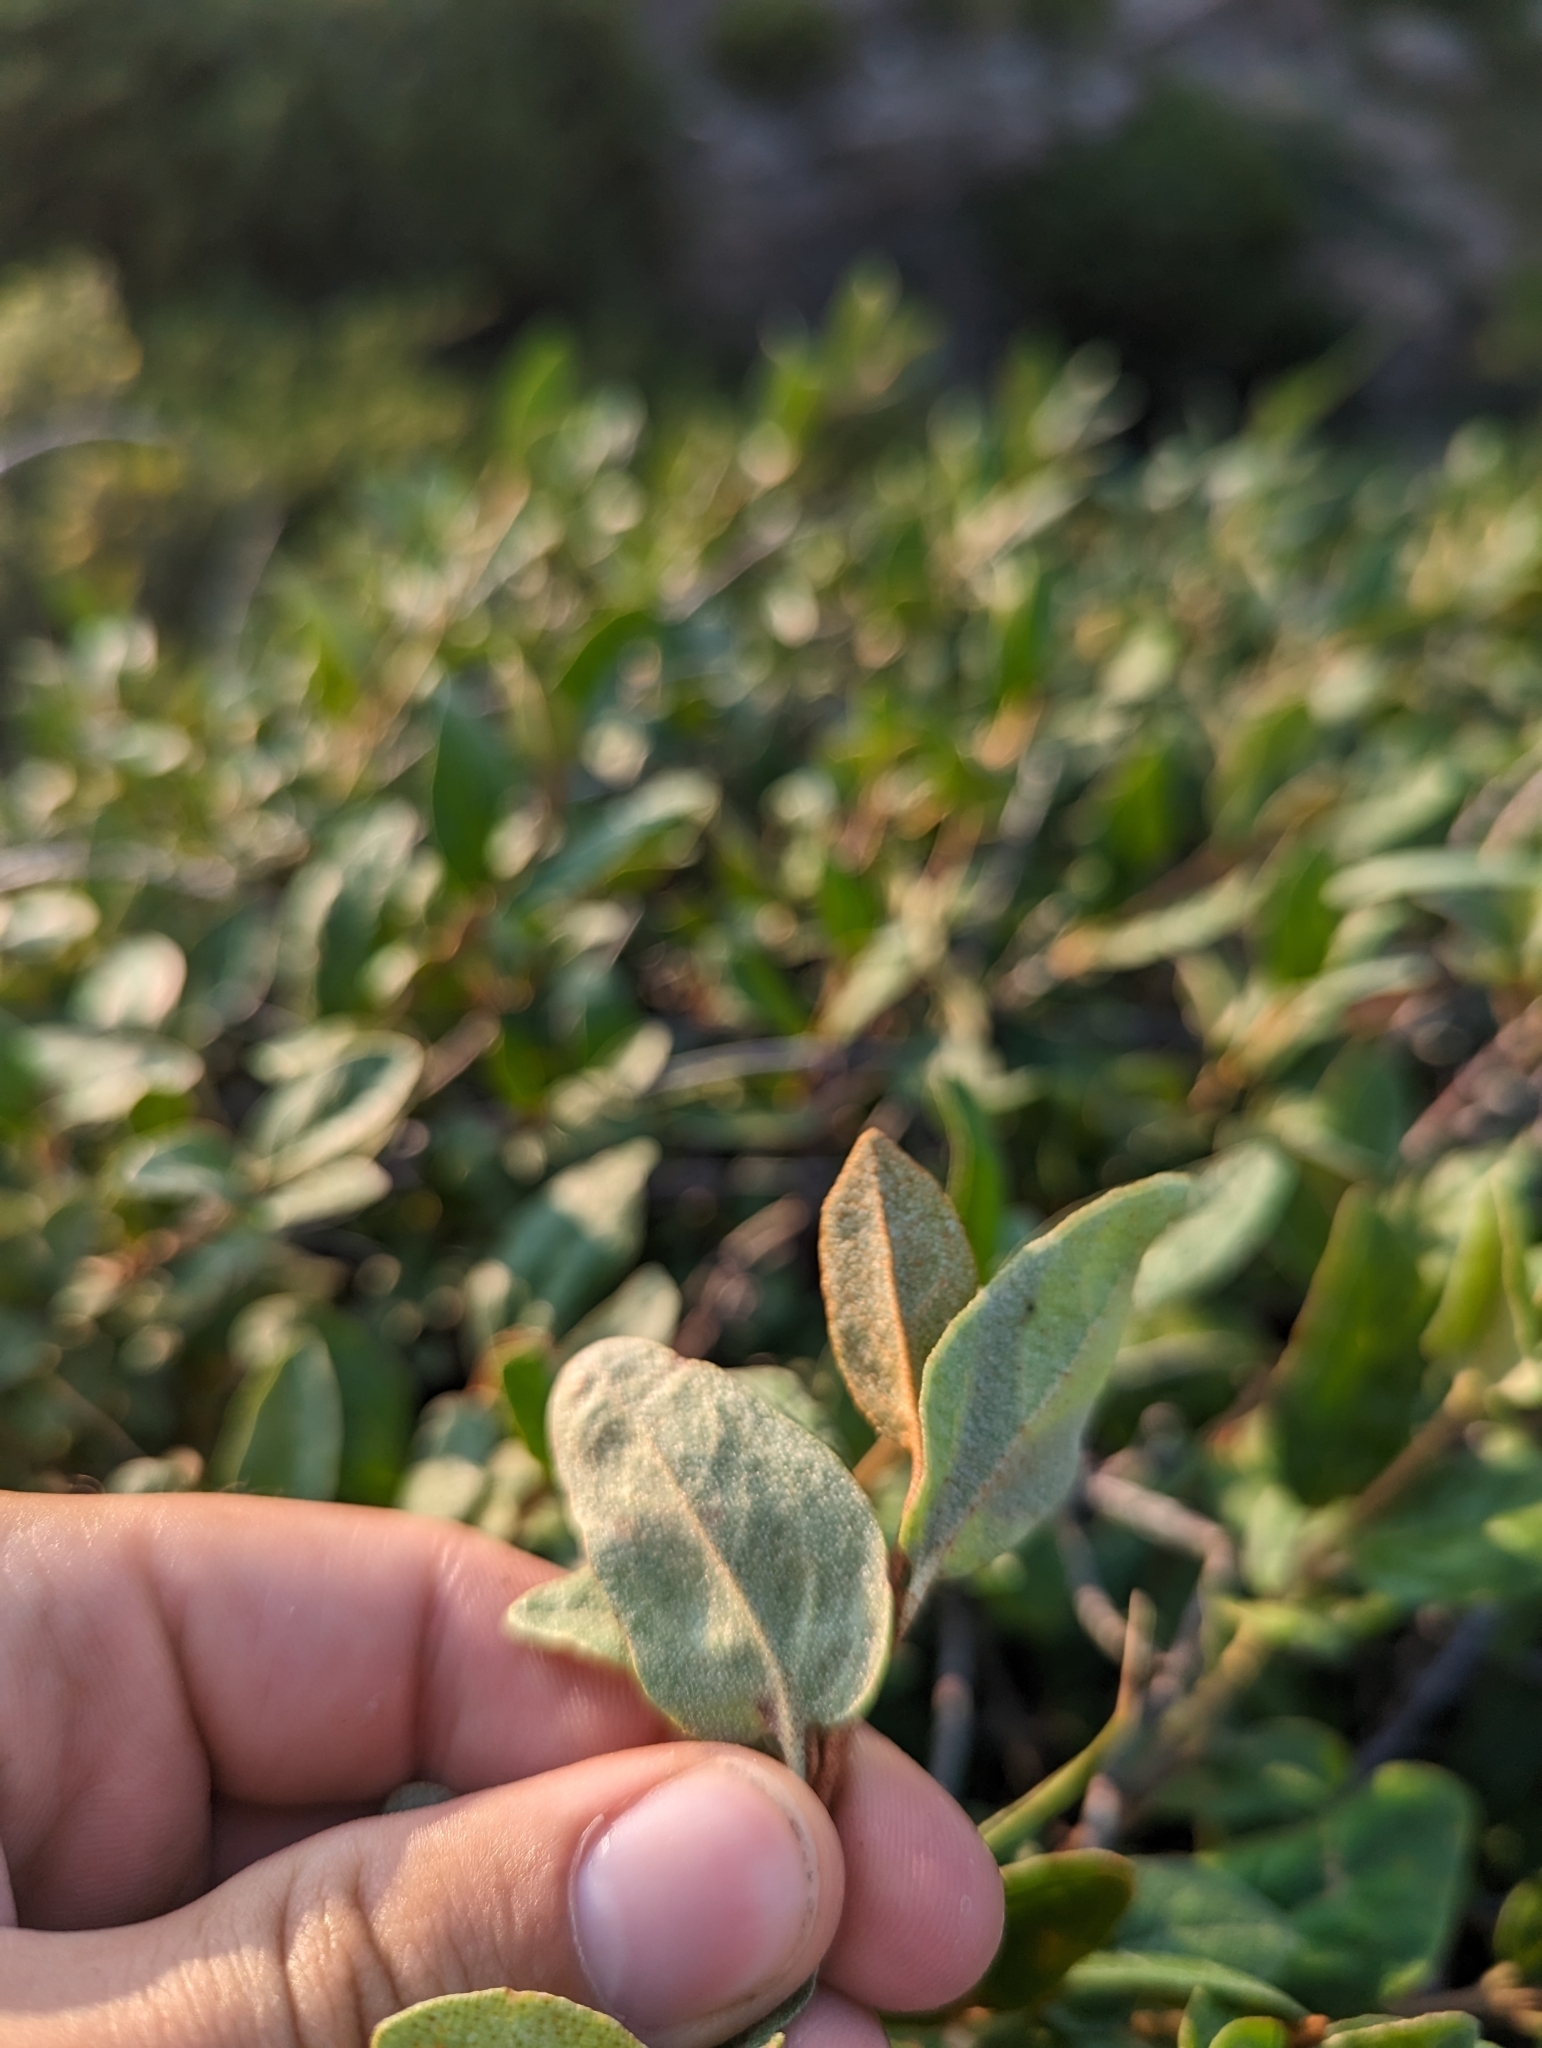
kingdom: Plantae
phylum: Tracheophyta
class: Magnoliopsida
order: Rosales
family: Elaeagnaceae
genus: Shepherdia
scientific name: Shepherdia canadensis
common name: Soapberry
